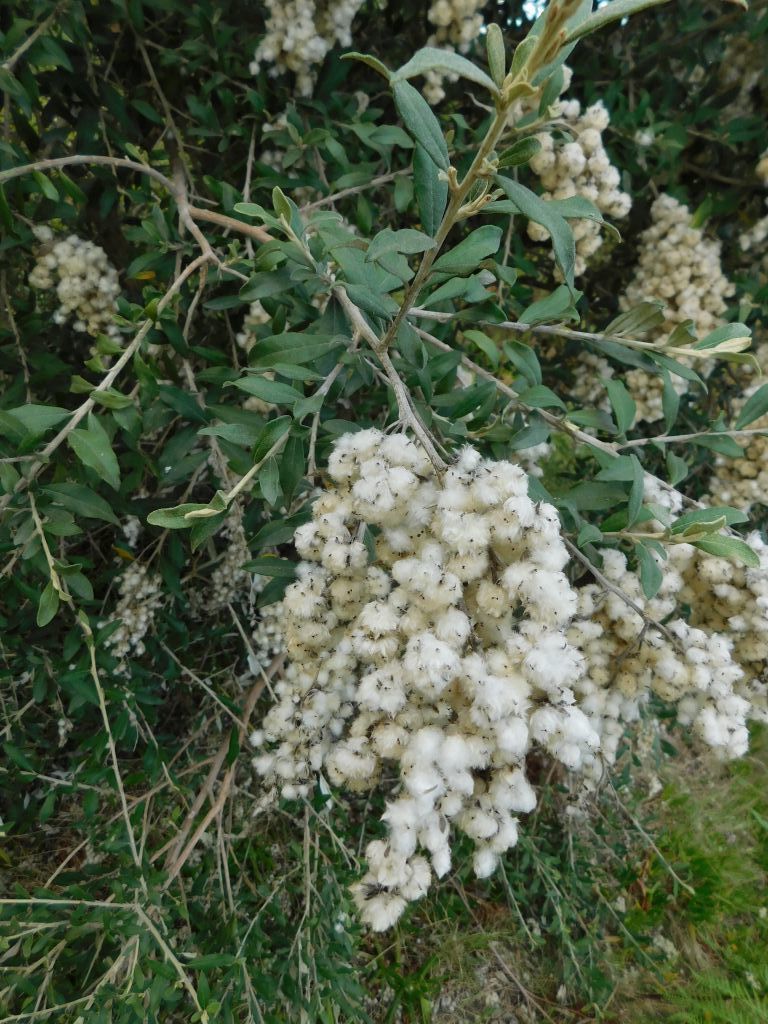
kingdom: Plantae
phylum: Tracheophyta
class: Magnoliopsida
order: Asterales
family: Asteraceae
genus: Tarchonanthus
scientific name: Tarchonanthus littoralis
